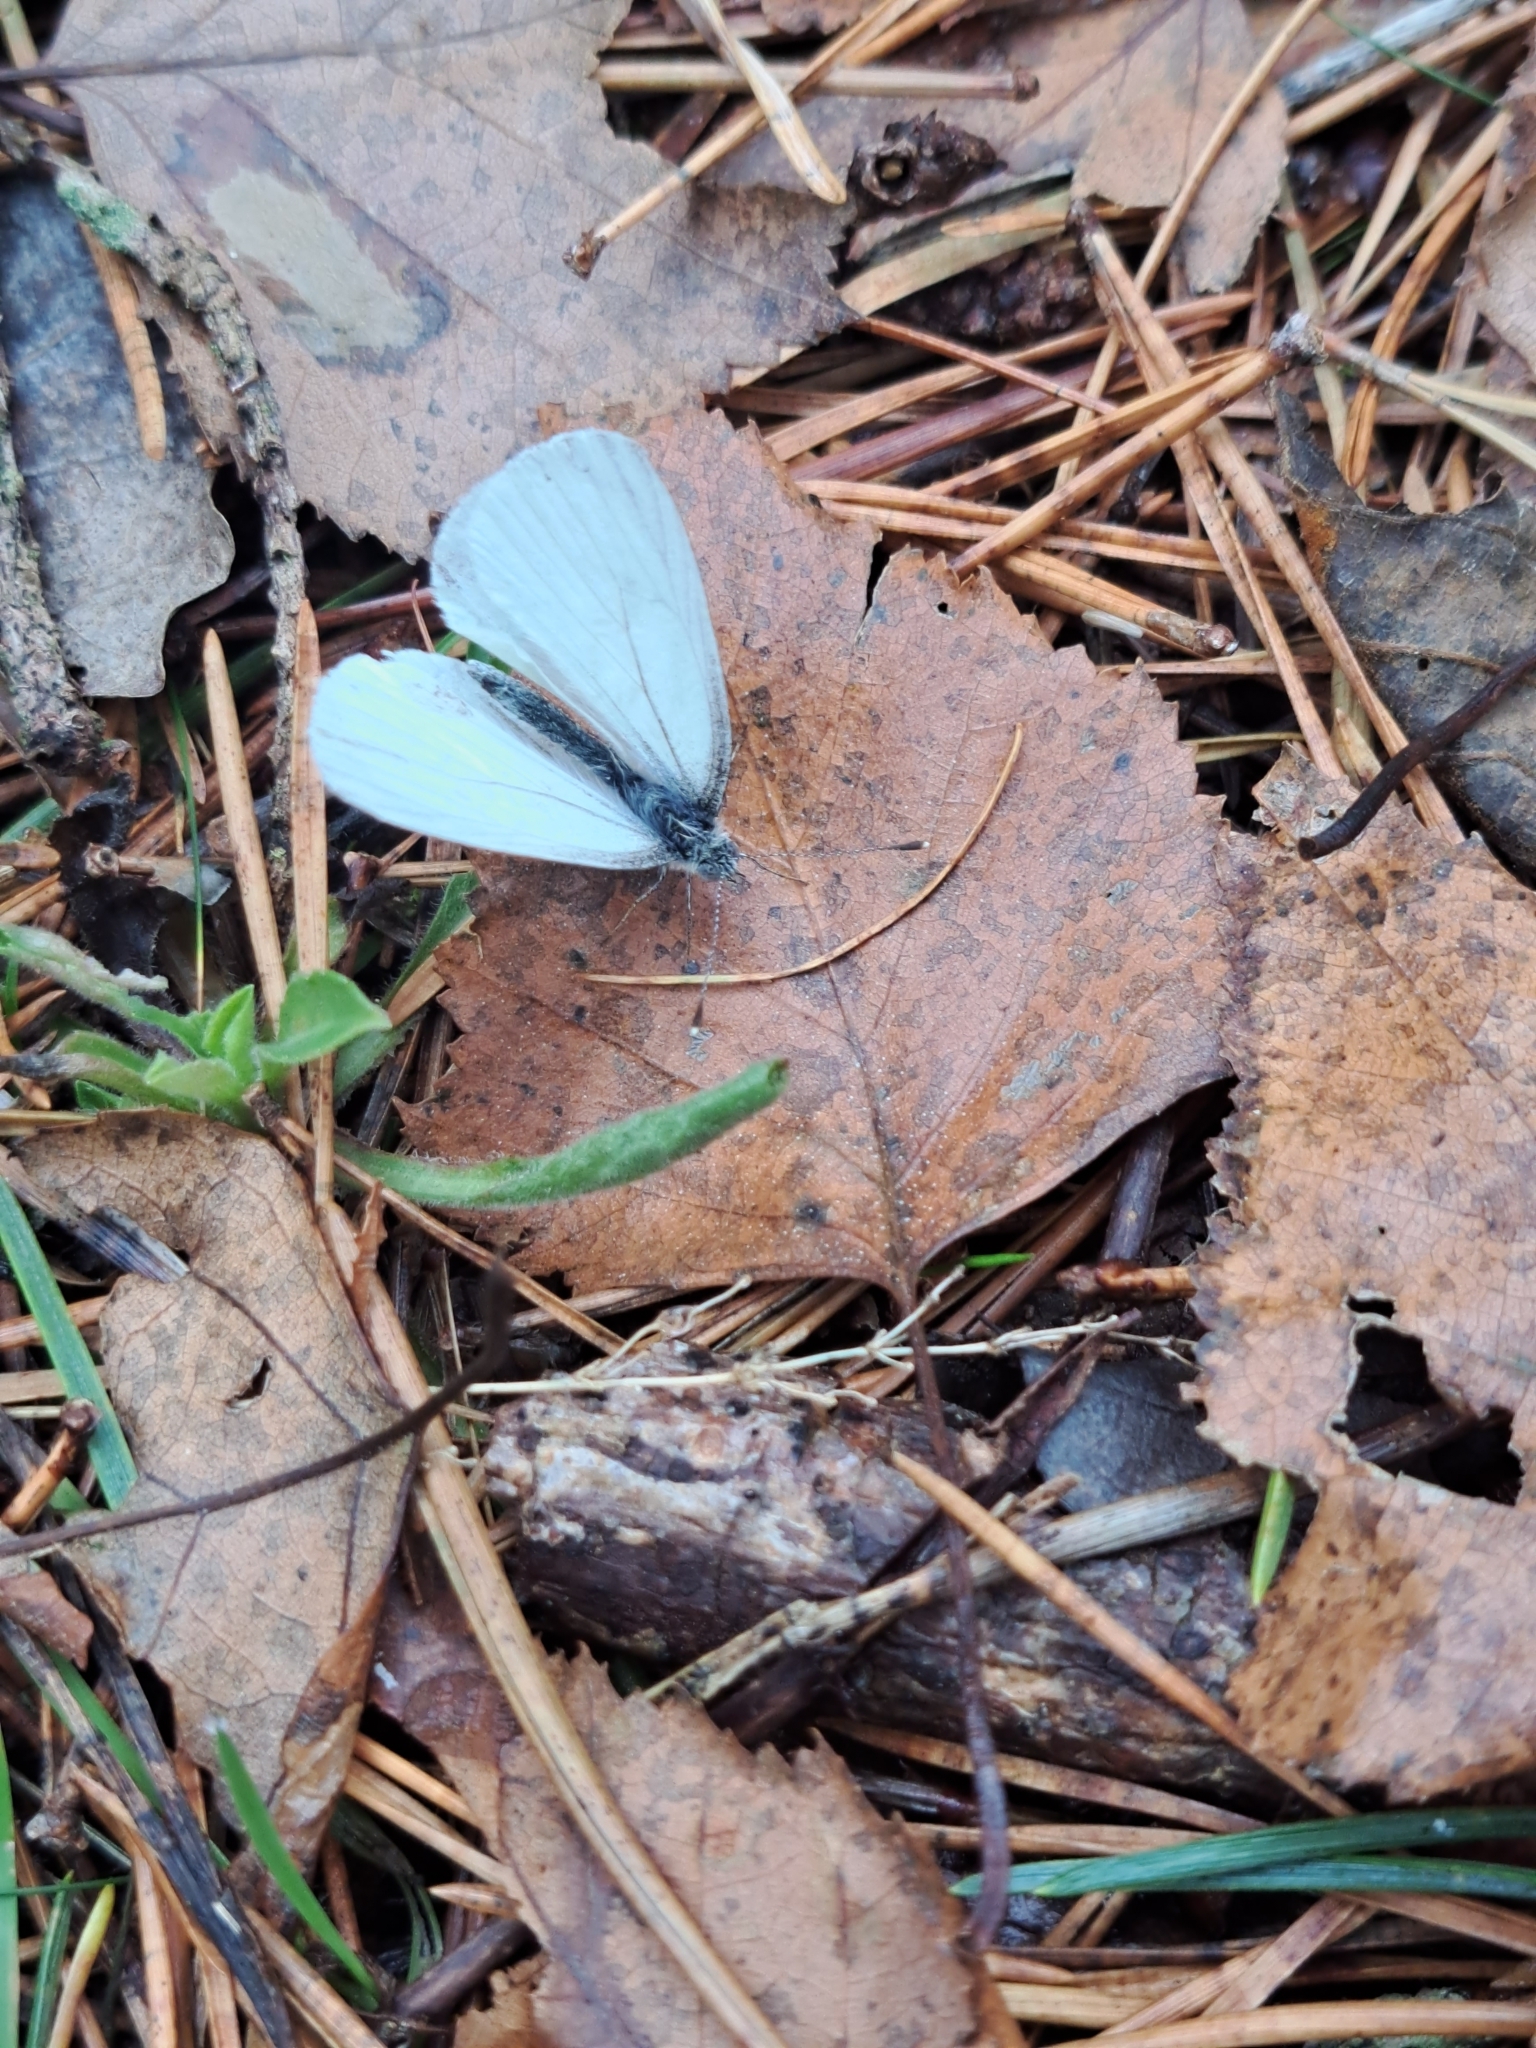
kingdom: Animalia
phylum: Arthropoda
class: Insecta
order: Lepidoptera
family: Pieridae
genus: Pieris
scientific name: Pieris oleracea
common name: Mustard white
